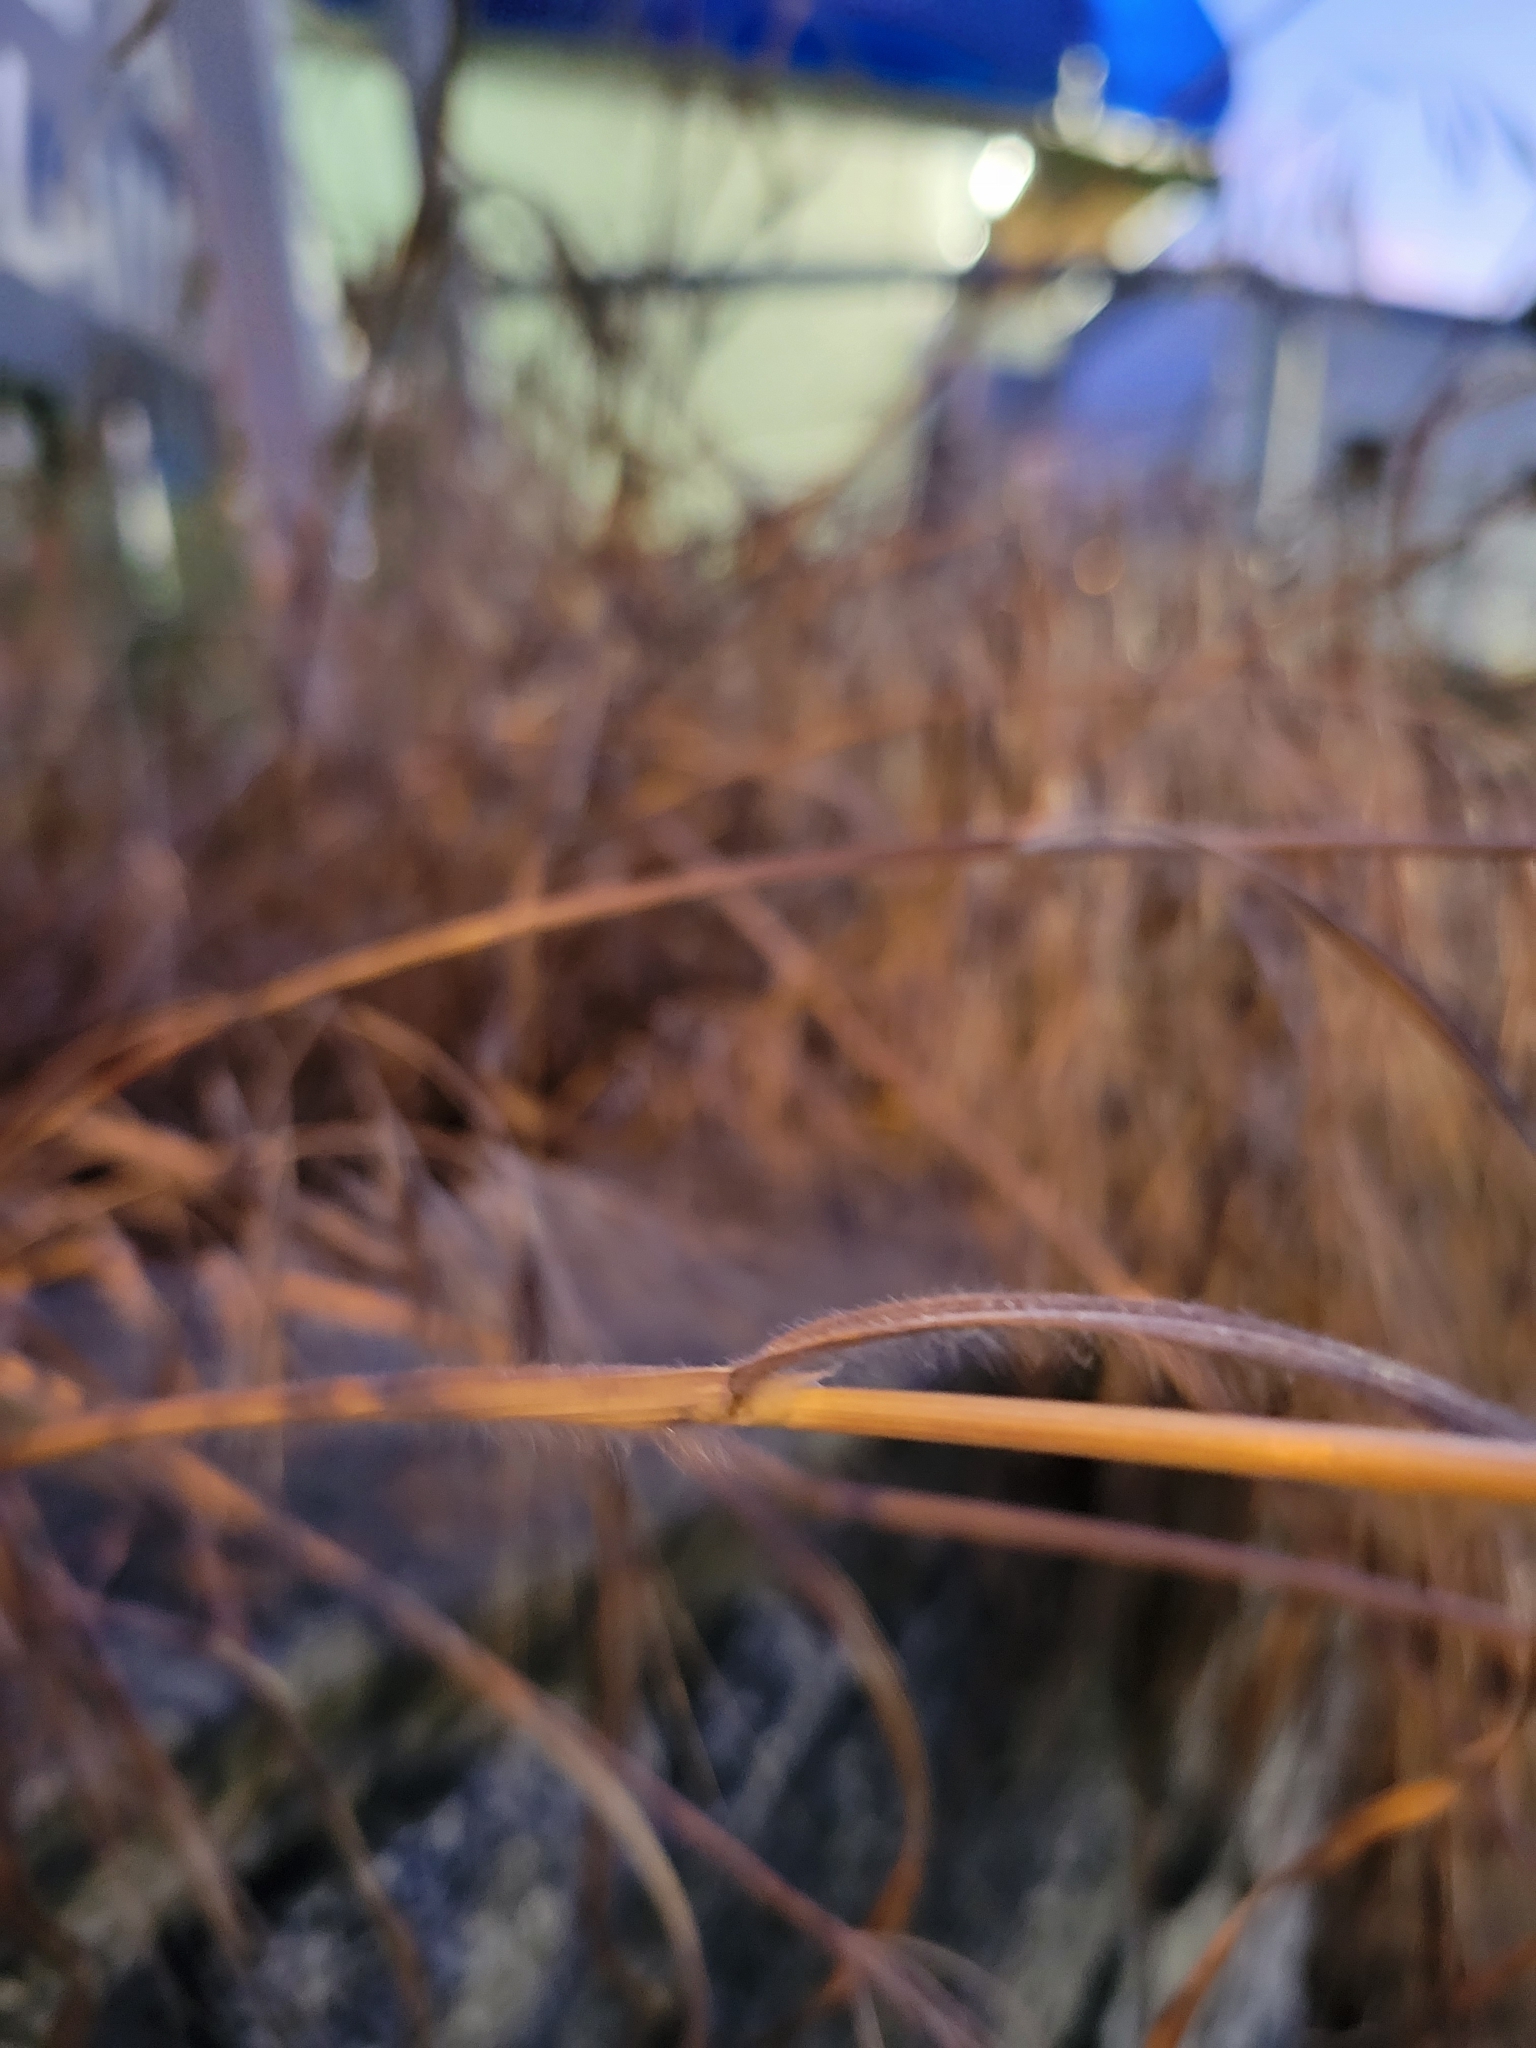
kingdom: Plantae
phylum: Tracheophyta
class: Liliopsida
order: Poales
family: Poaceae
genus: Bromus
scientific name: Bromus sterilis
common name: Poverty brome
